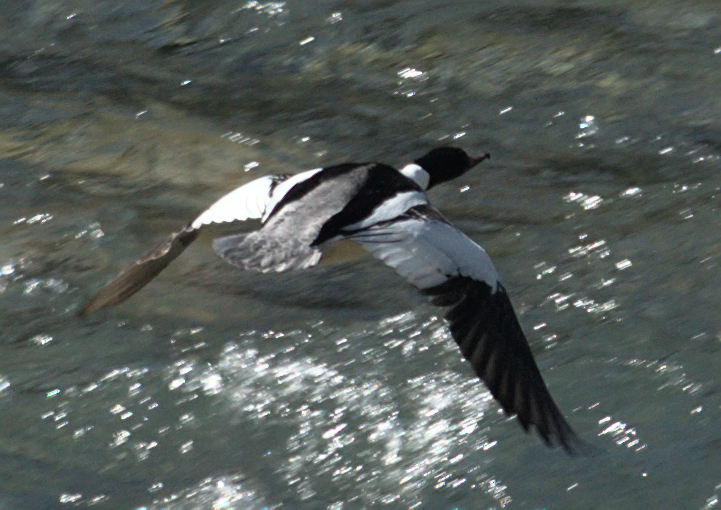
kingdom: Animalia
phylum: Chordata
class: Aves
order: Anseriformes
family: Anatidae
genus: Mergus
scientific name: Mergus merganser
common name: Common merganser
